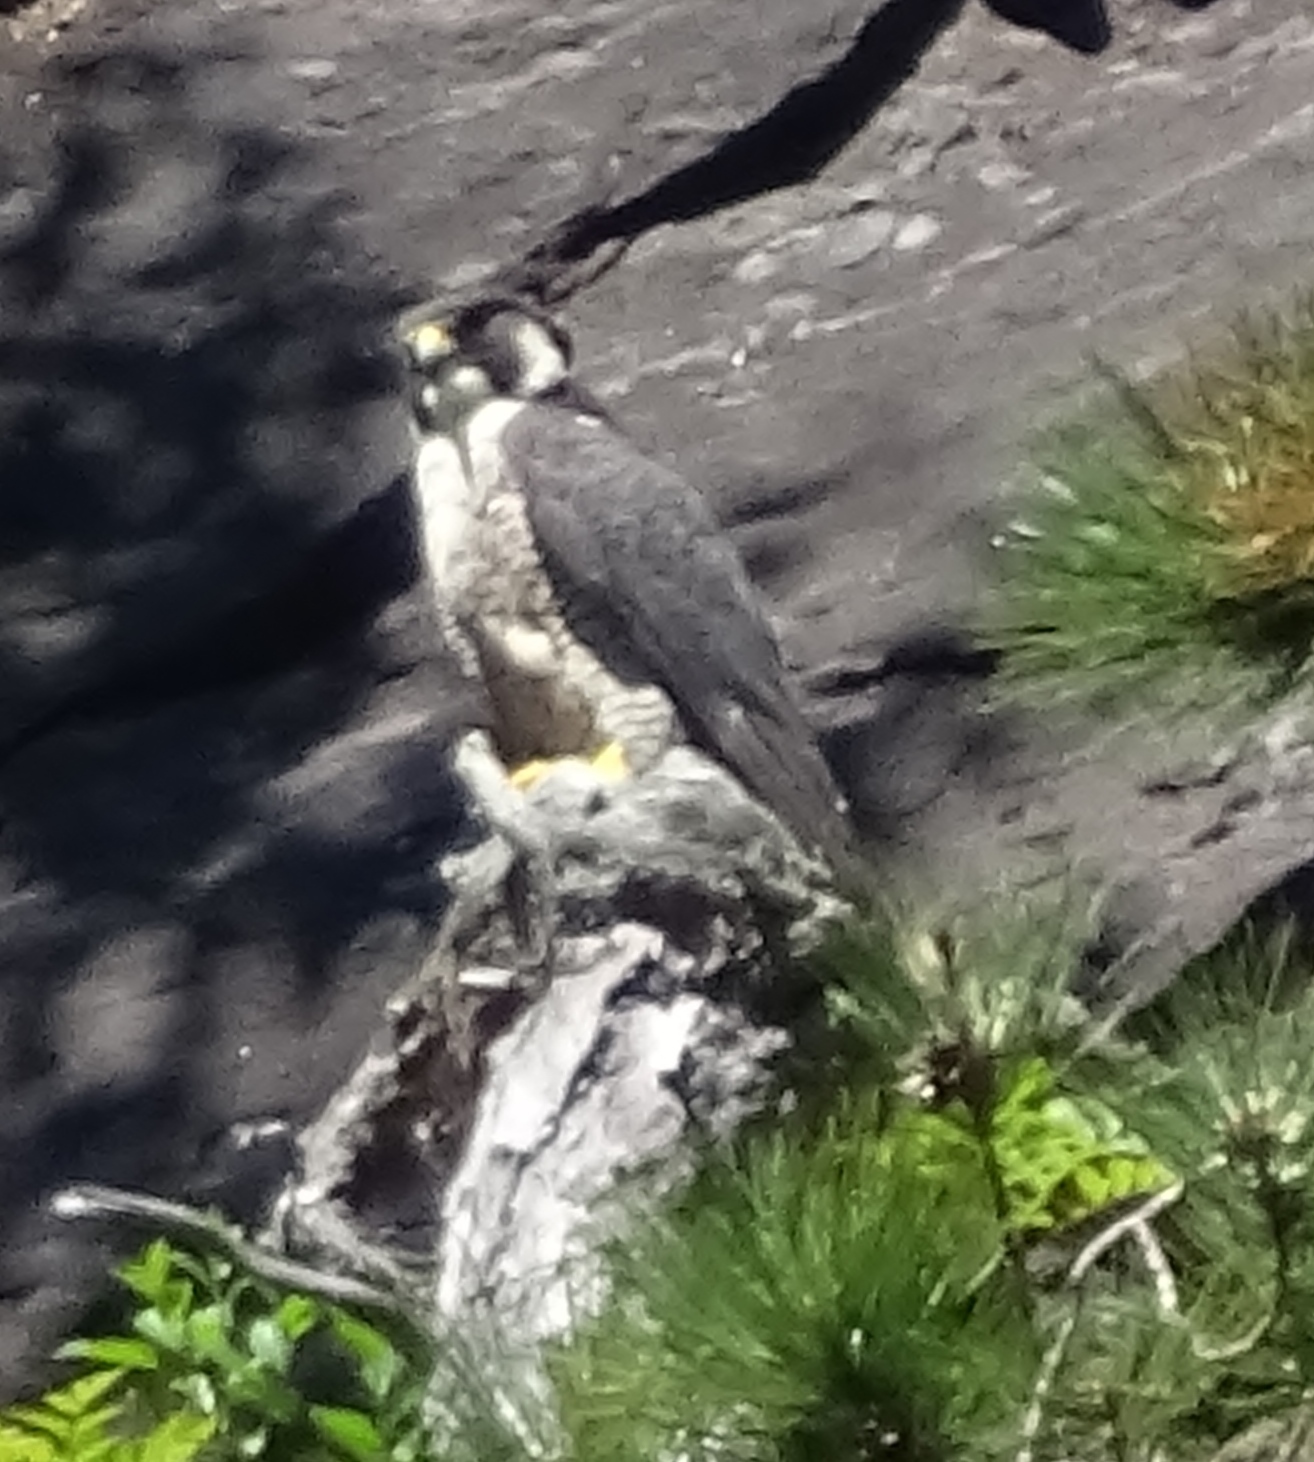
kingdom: Animalia
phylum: Chordata
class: Aves
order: Falconiformes
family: Falconidae
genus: Falco
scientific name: Falco peregrinus
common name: Peregrine falcon
